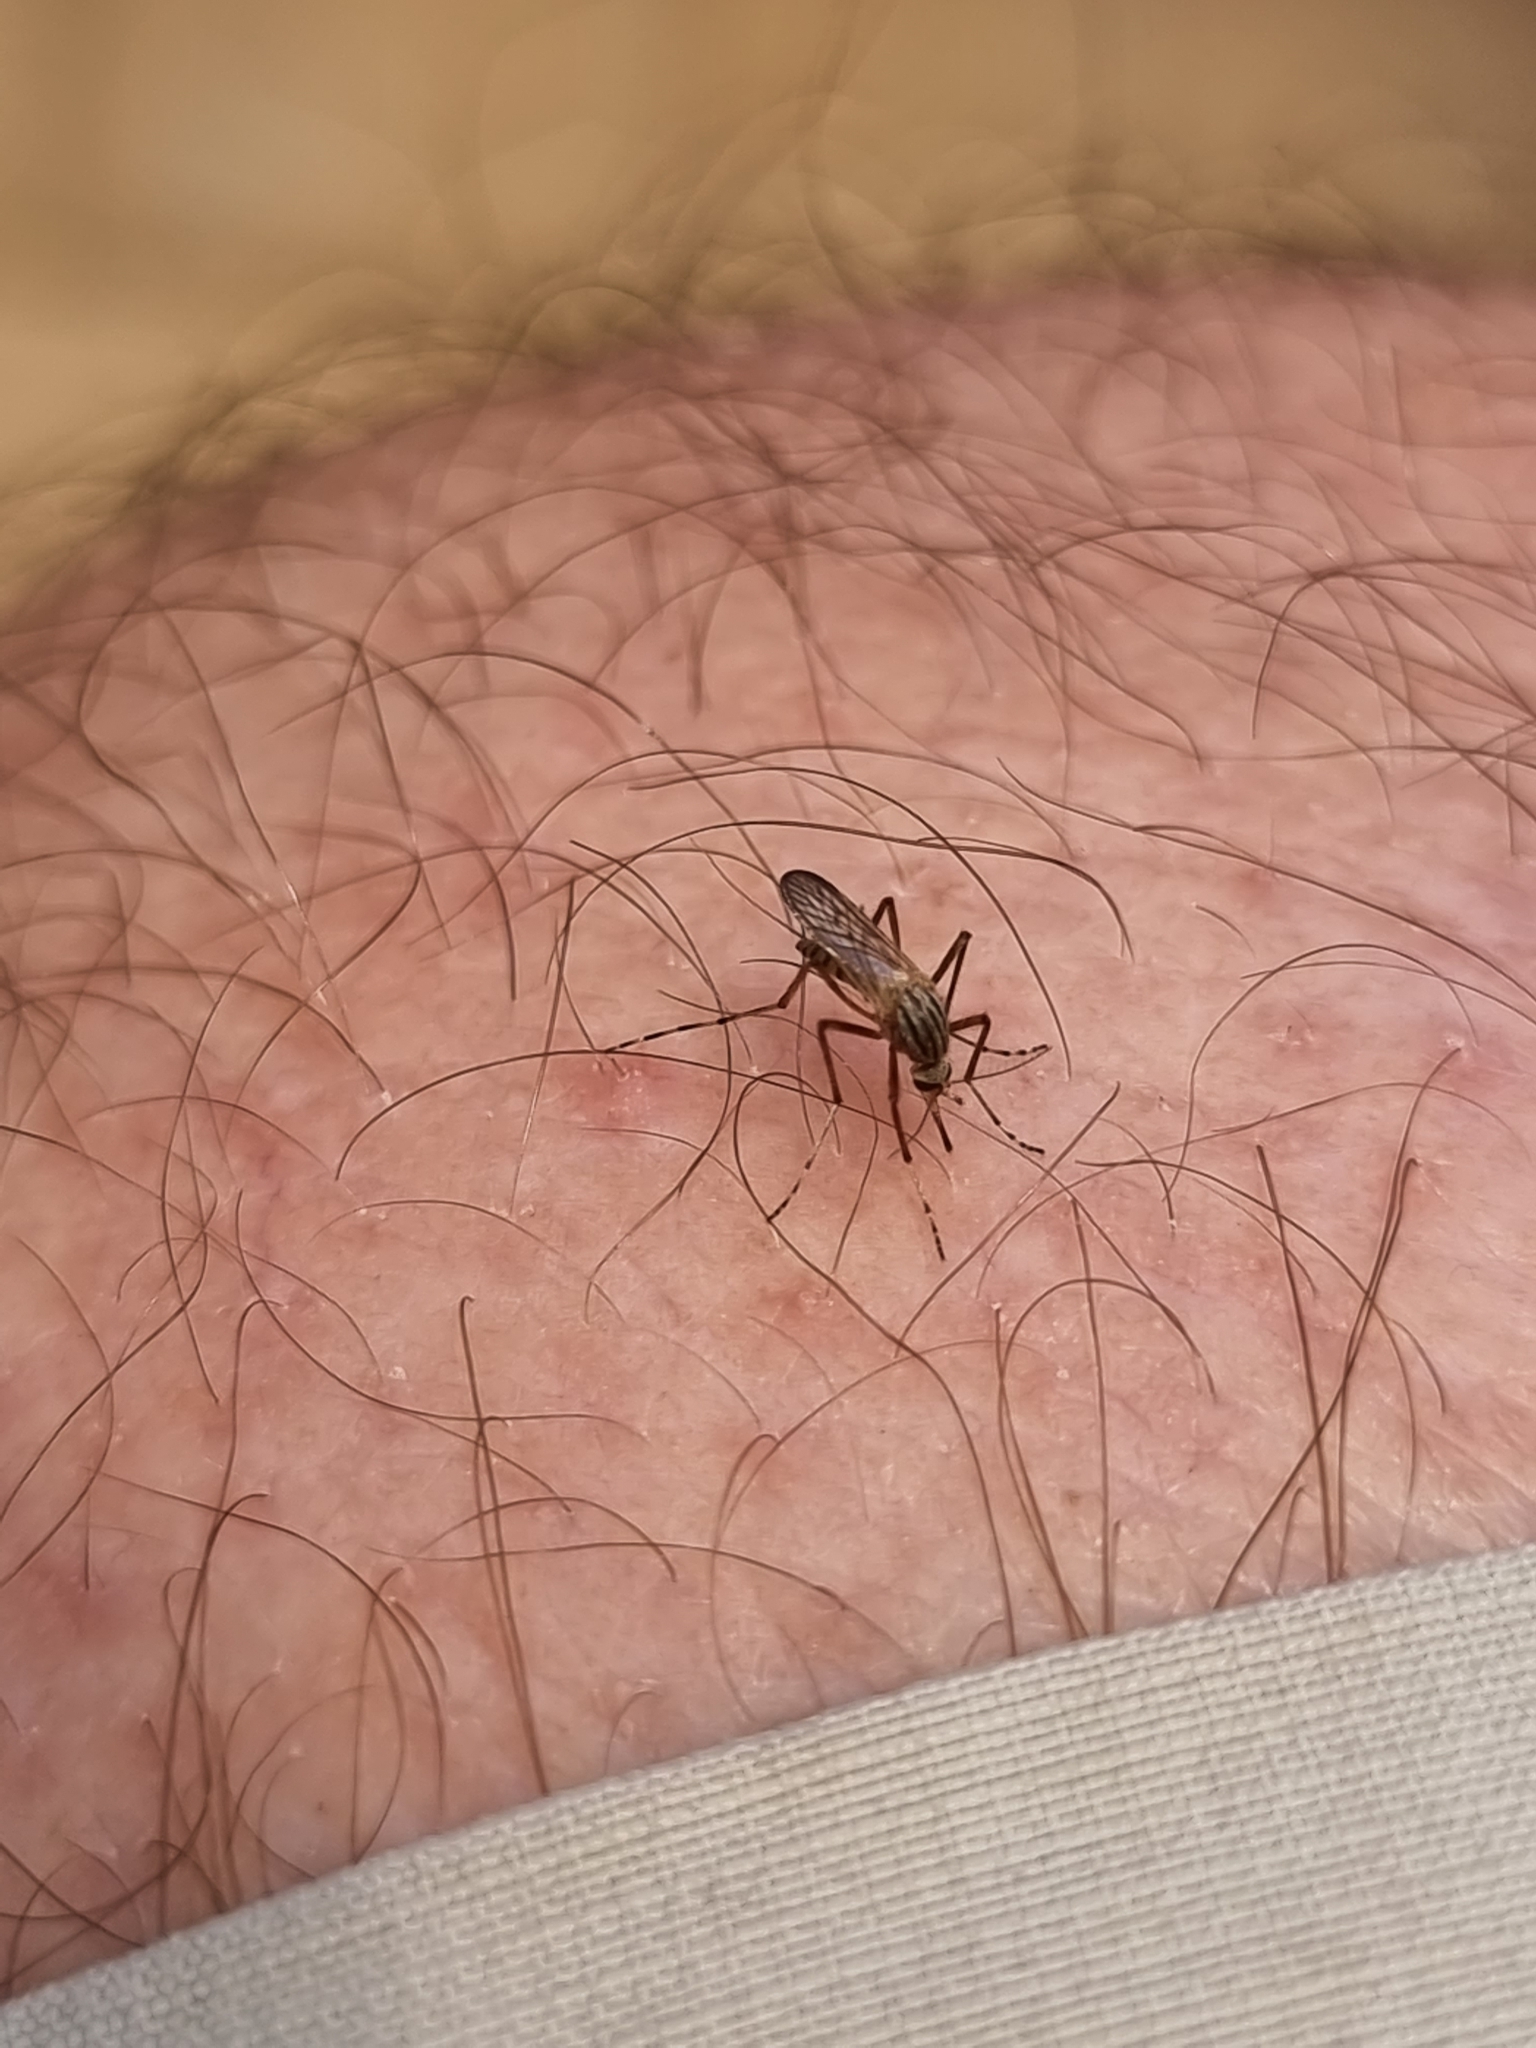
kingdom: Animalia
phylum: Arthropoda
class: Insecta
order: Diptera
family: Culicidae
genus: Aedes
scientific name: Aedes vittiger
